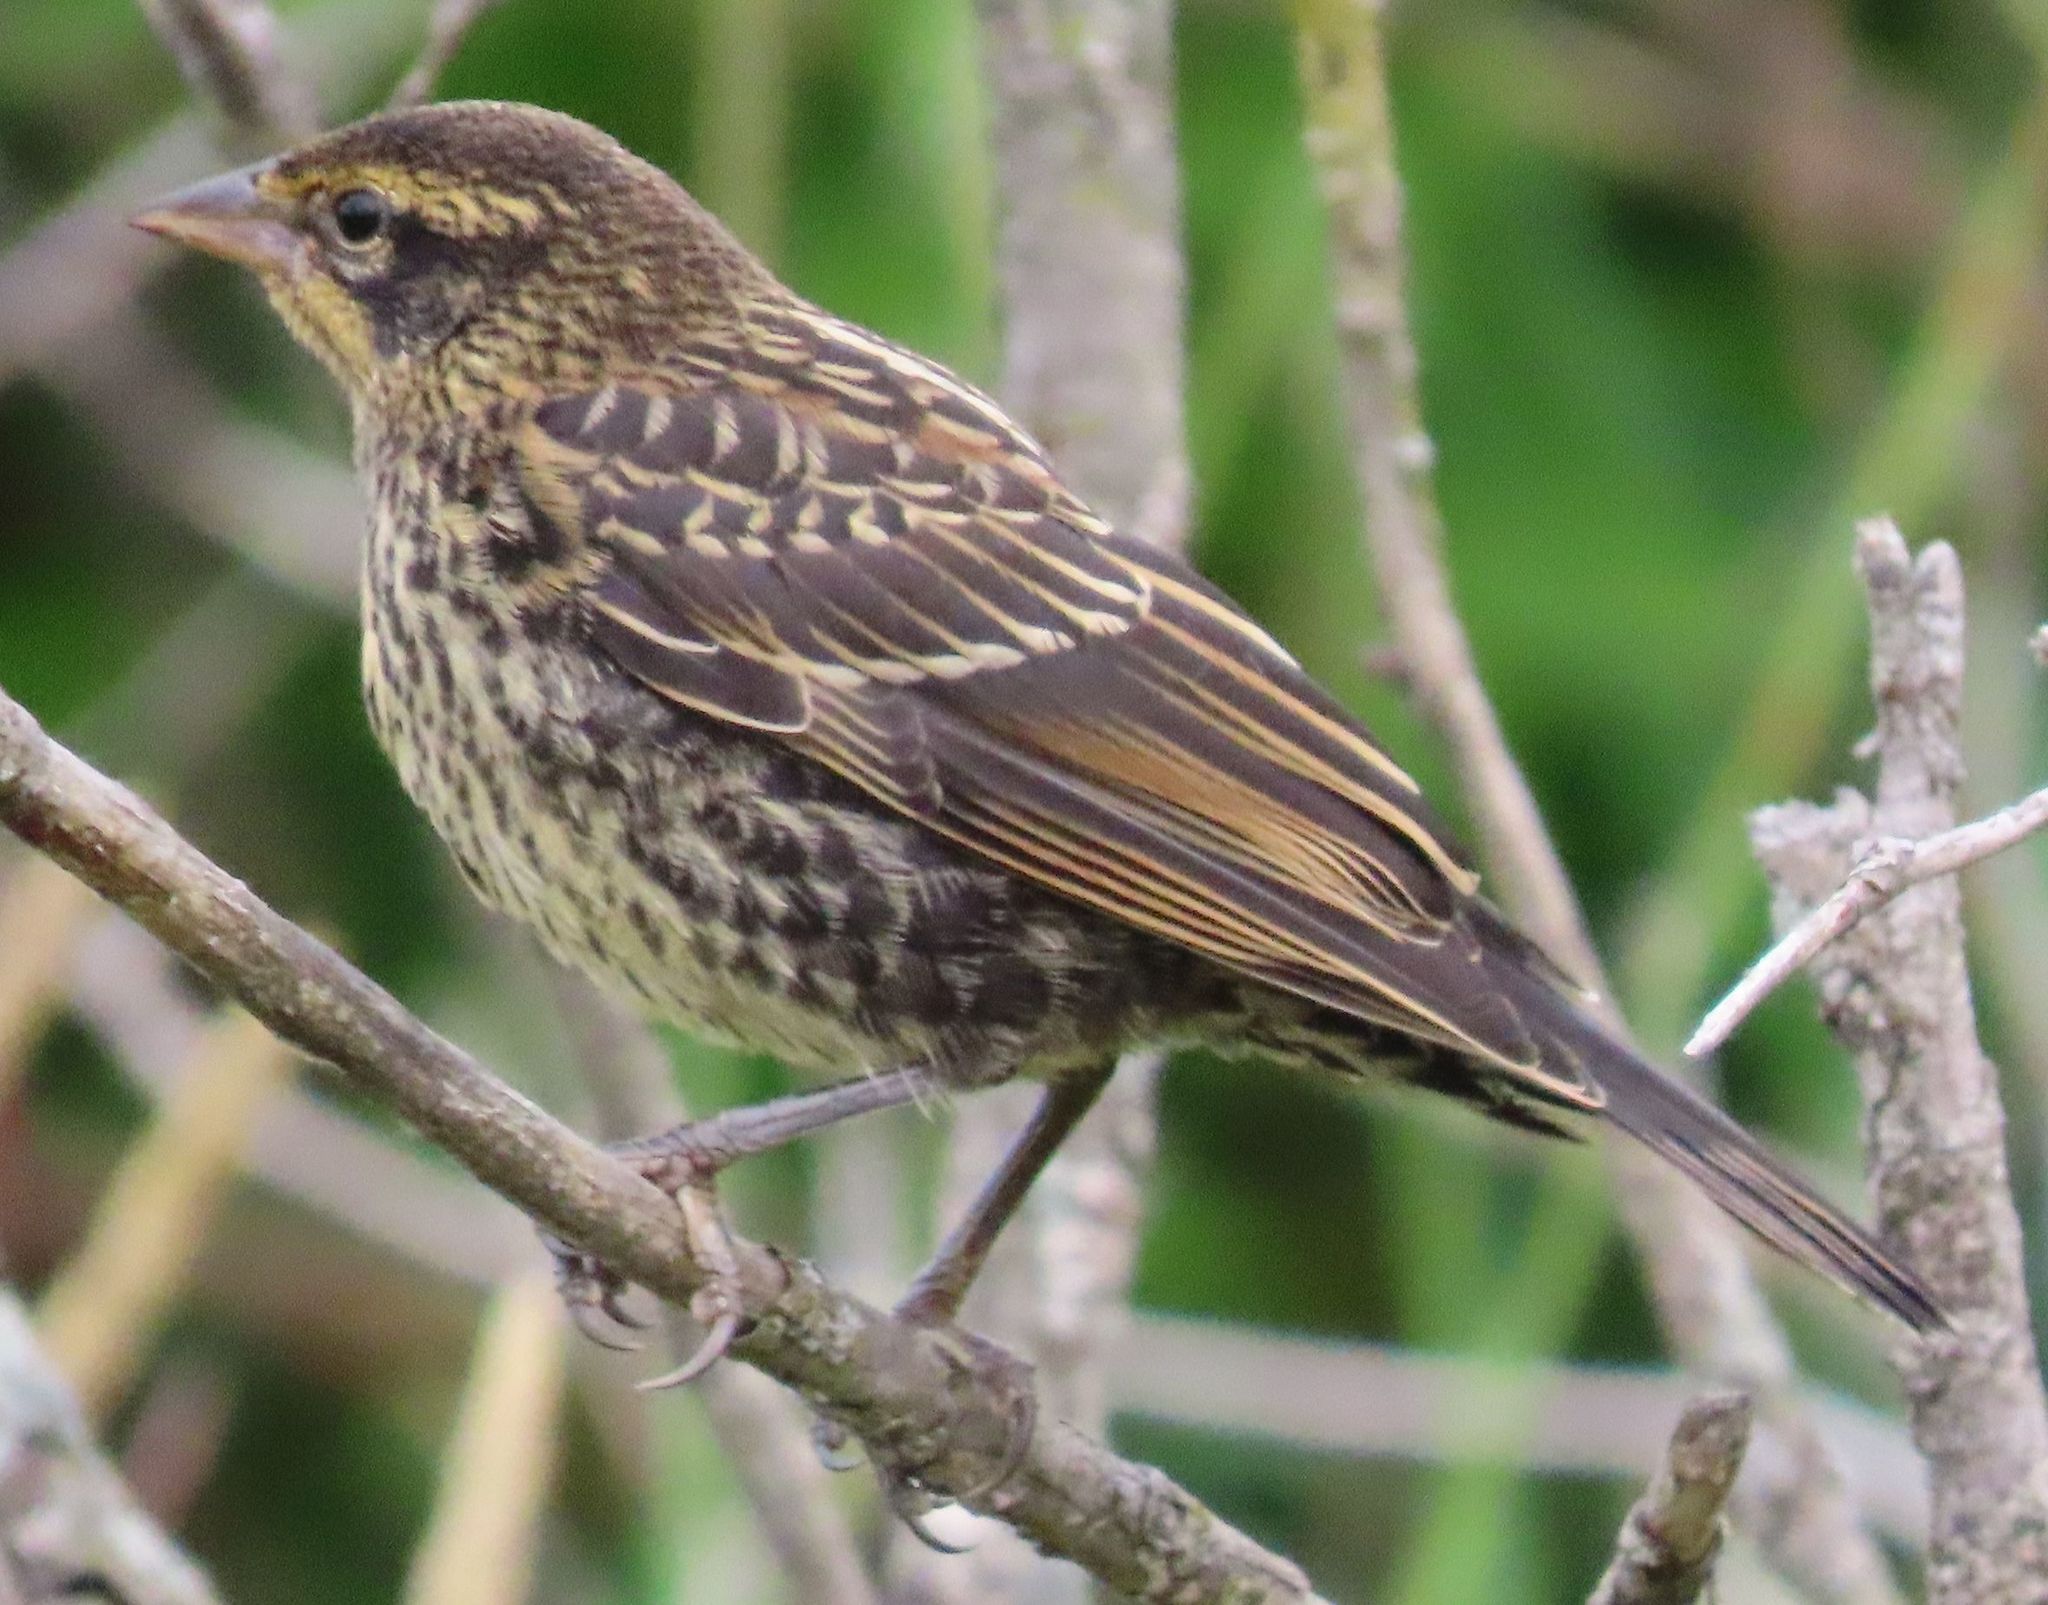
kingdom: Animalia
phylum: Chordata
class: Aves
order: Passeriformes
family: Icteridae
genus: Agelaius
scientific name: Agelaius phoeniceus
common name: Red-winged blackbird
